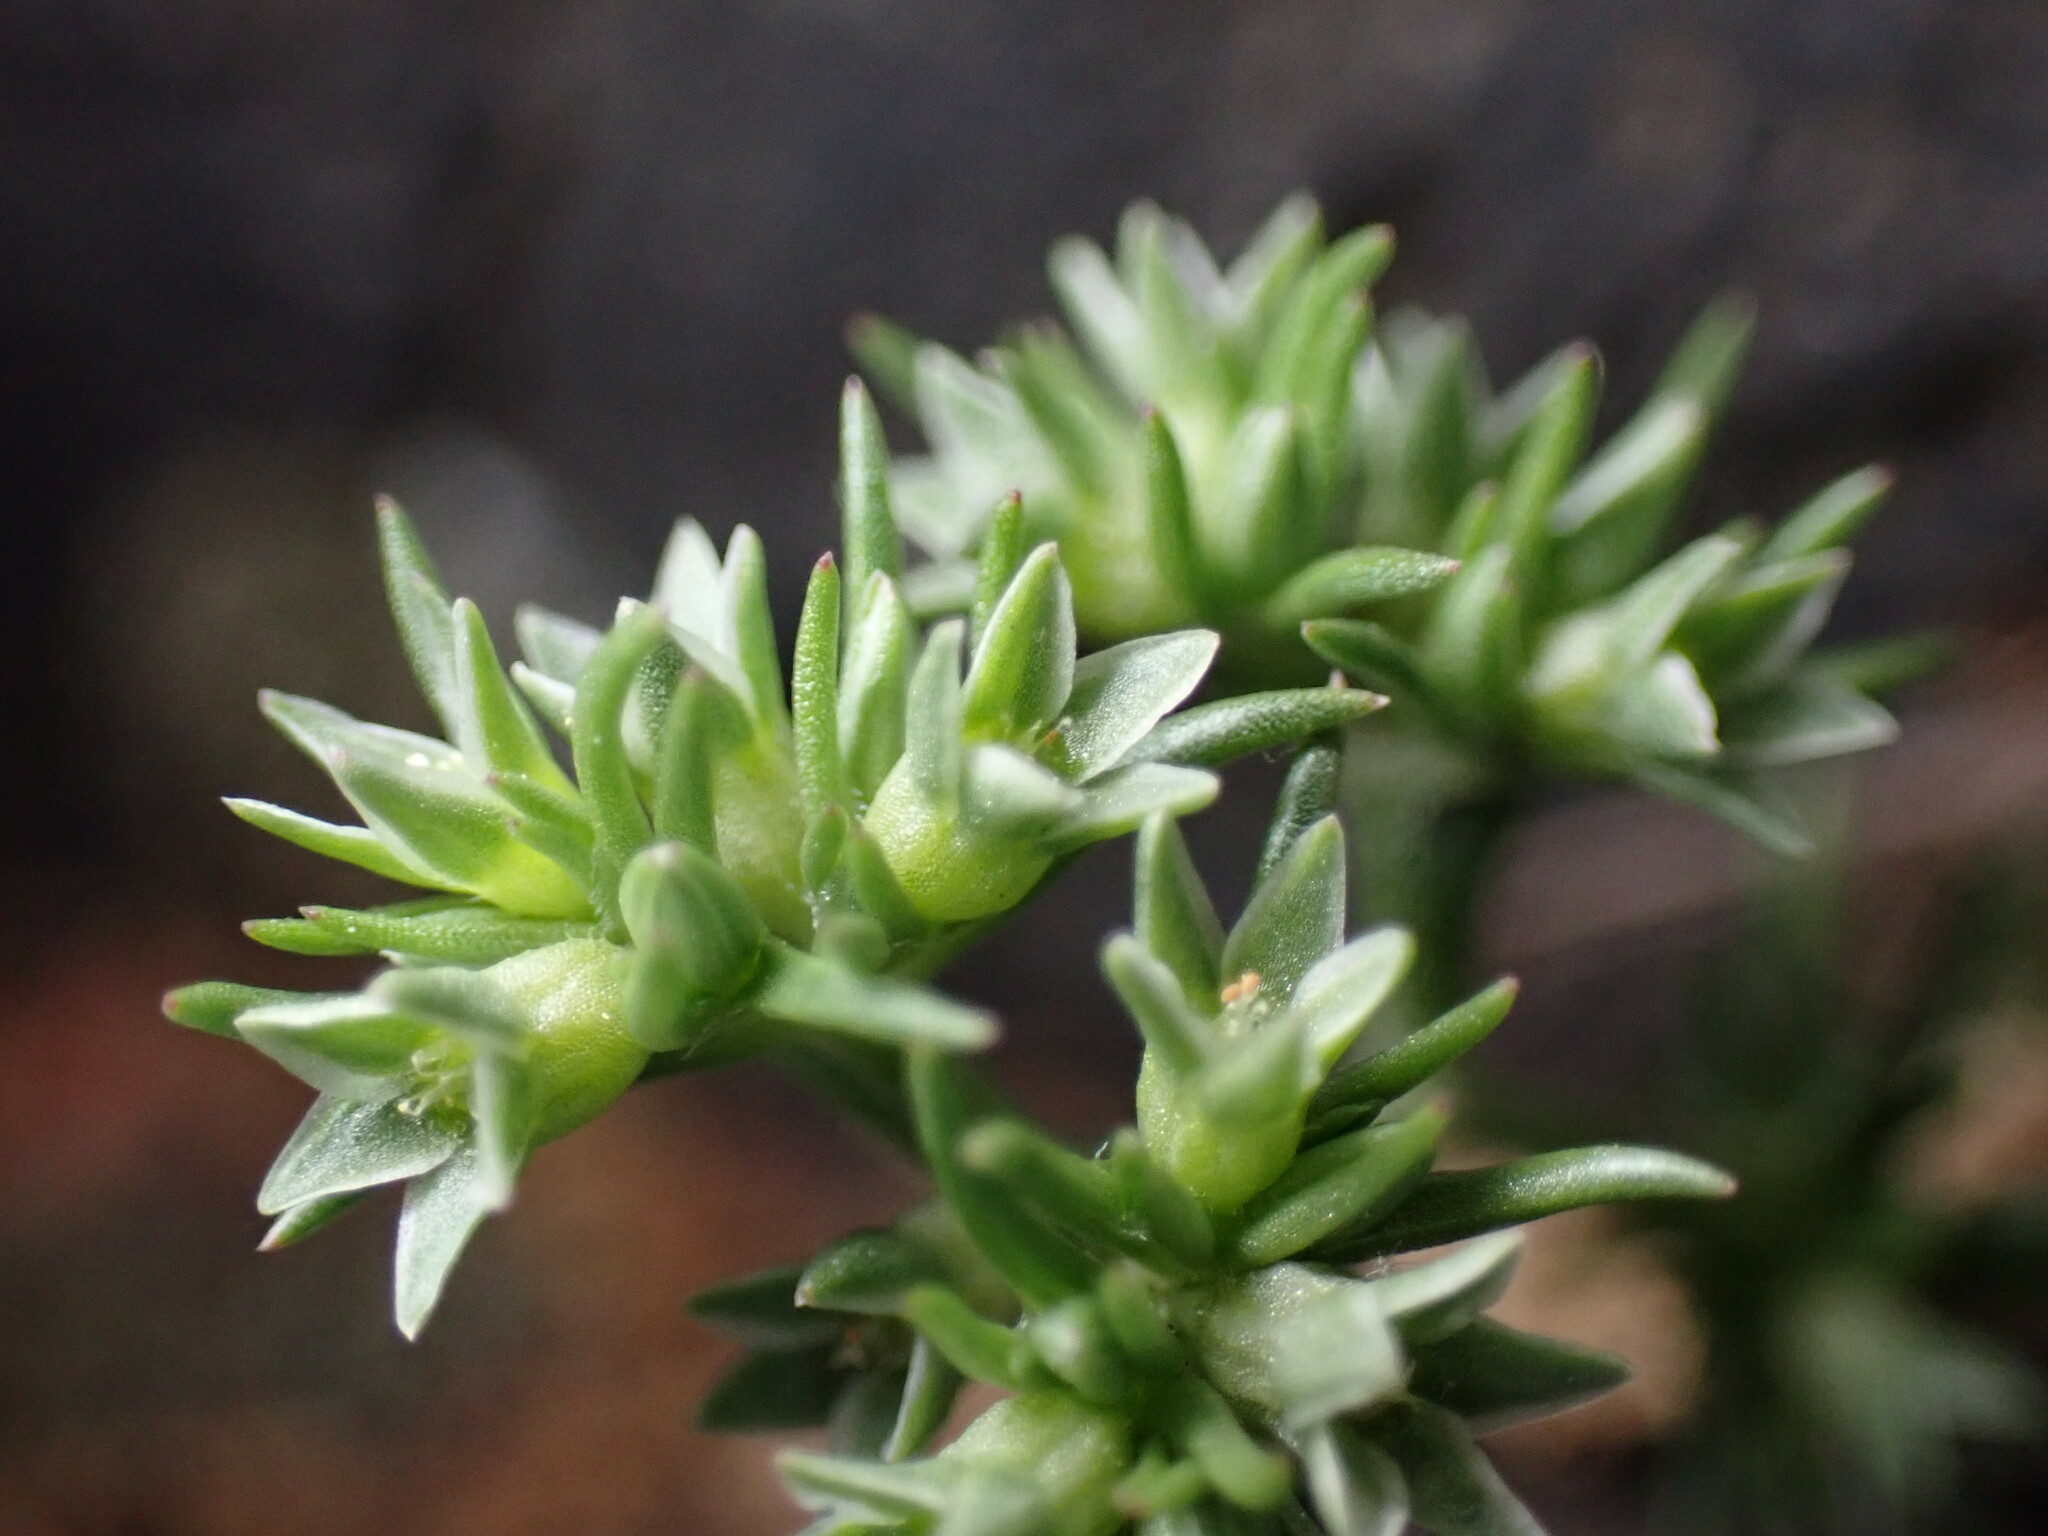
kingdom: Plantae
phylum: Tracheophyta
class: Magnoliopsida
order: Caryophyllales
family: Caryophyllaceae
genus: Scleranthus
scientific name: Scleranthus annuus
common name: Annual knawel
